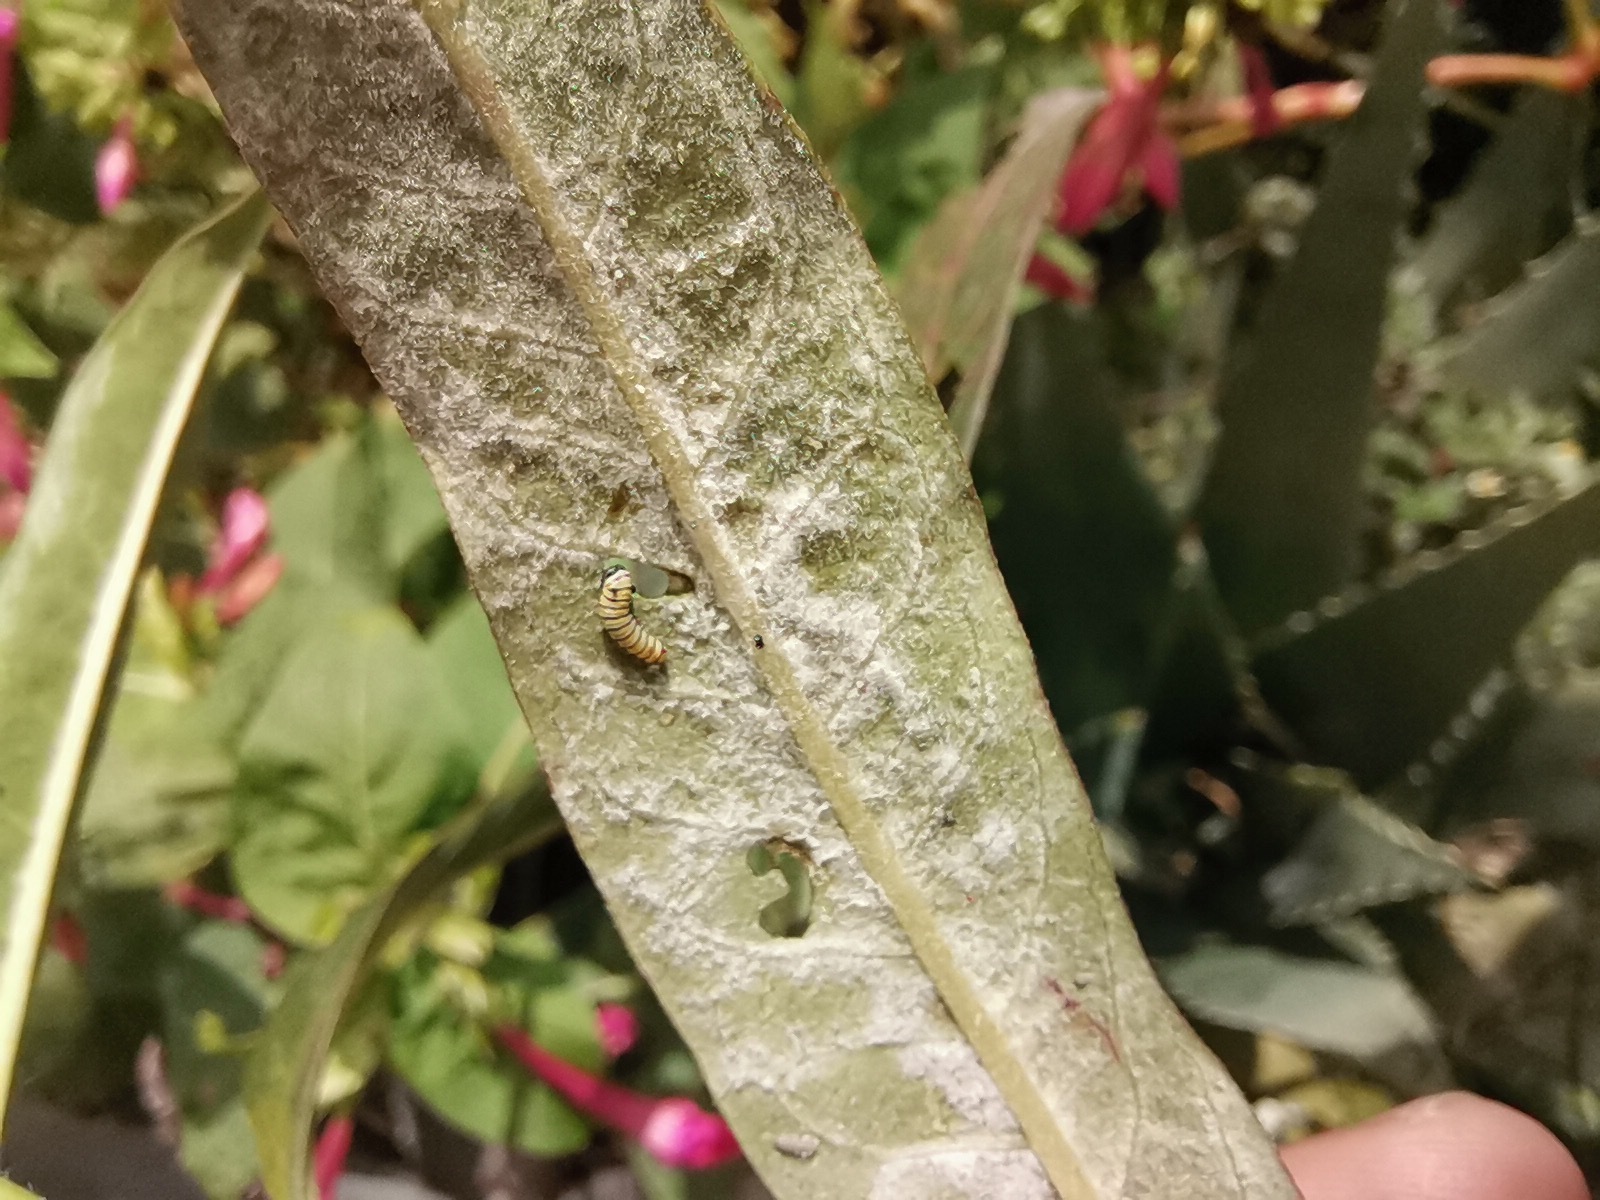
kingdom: Animalia
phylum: Arthropoda
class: Insecta
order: Lepidoptera
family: Nymphalidae
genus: Danaus
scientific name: Danaus plexippus
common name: Monarch
